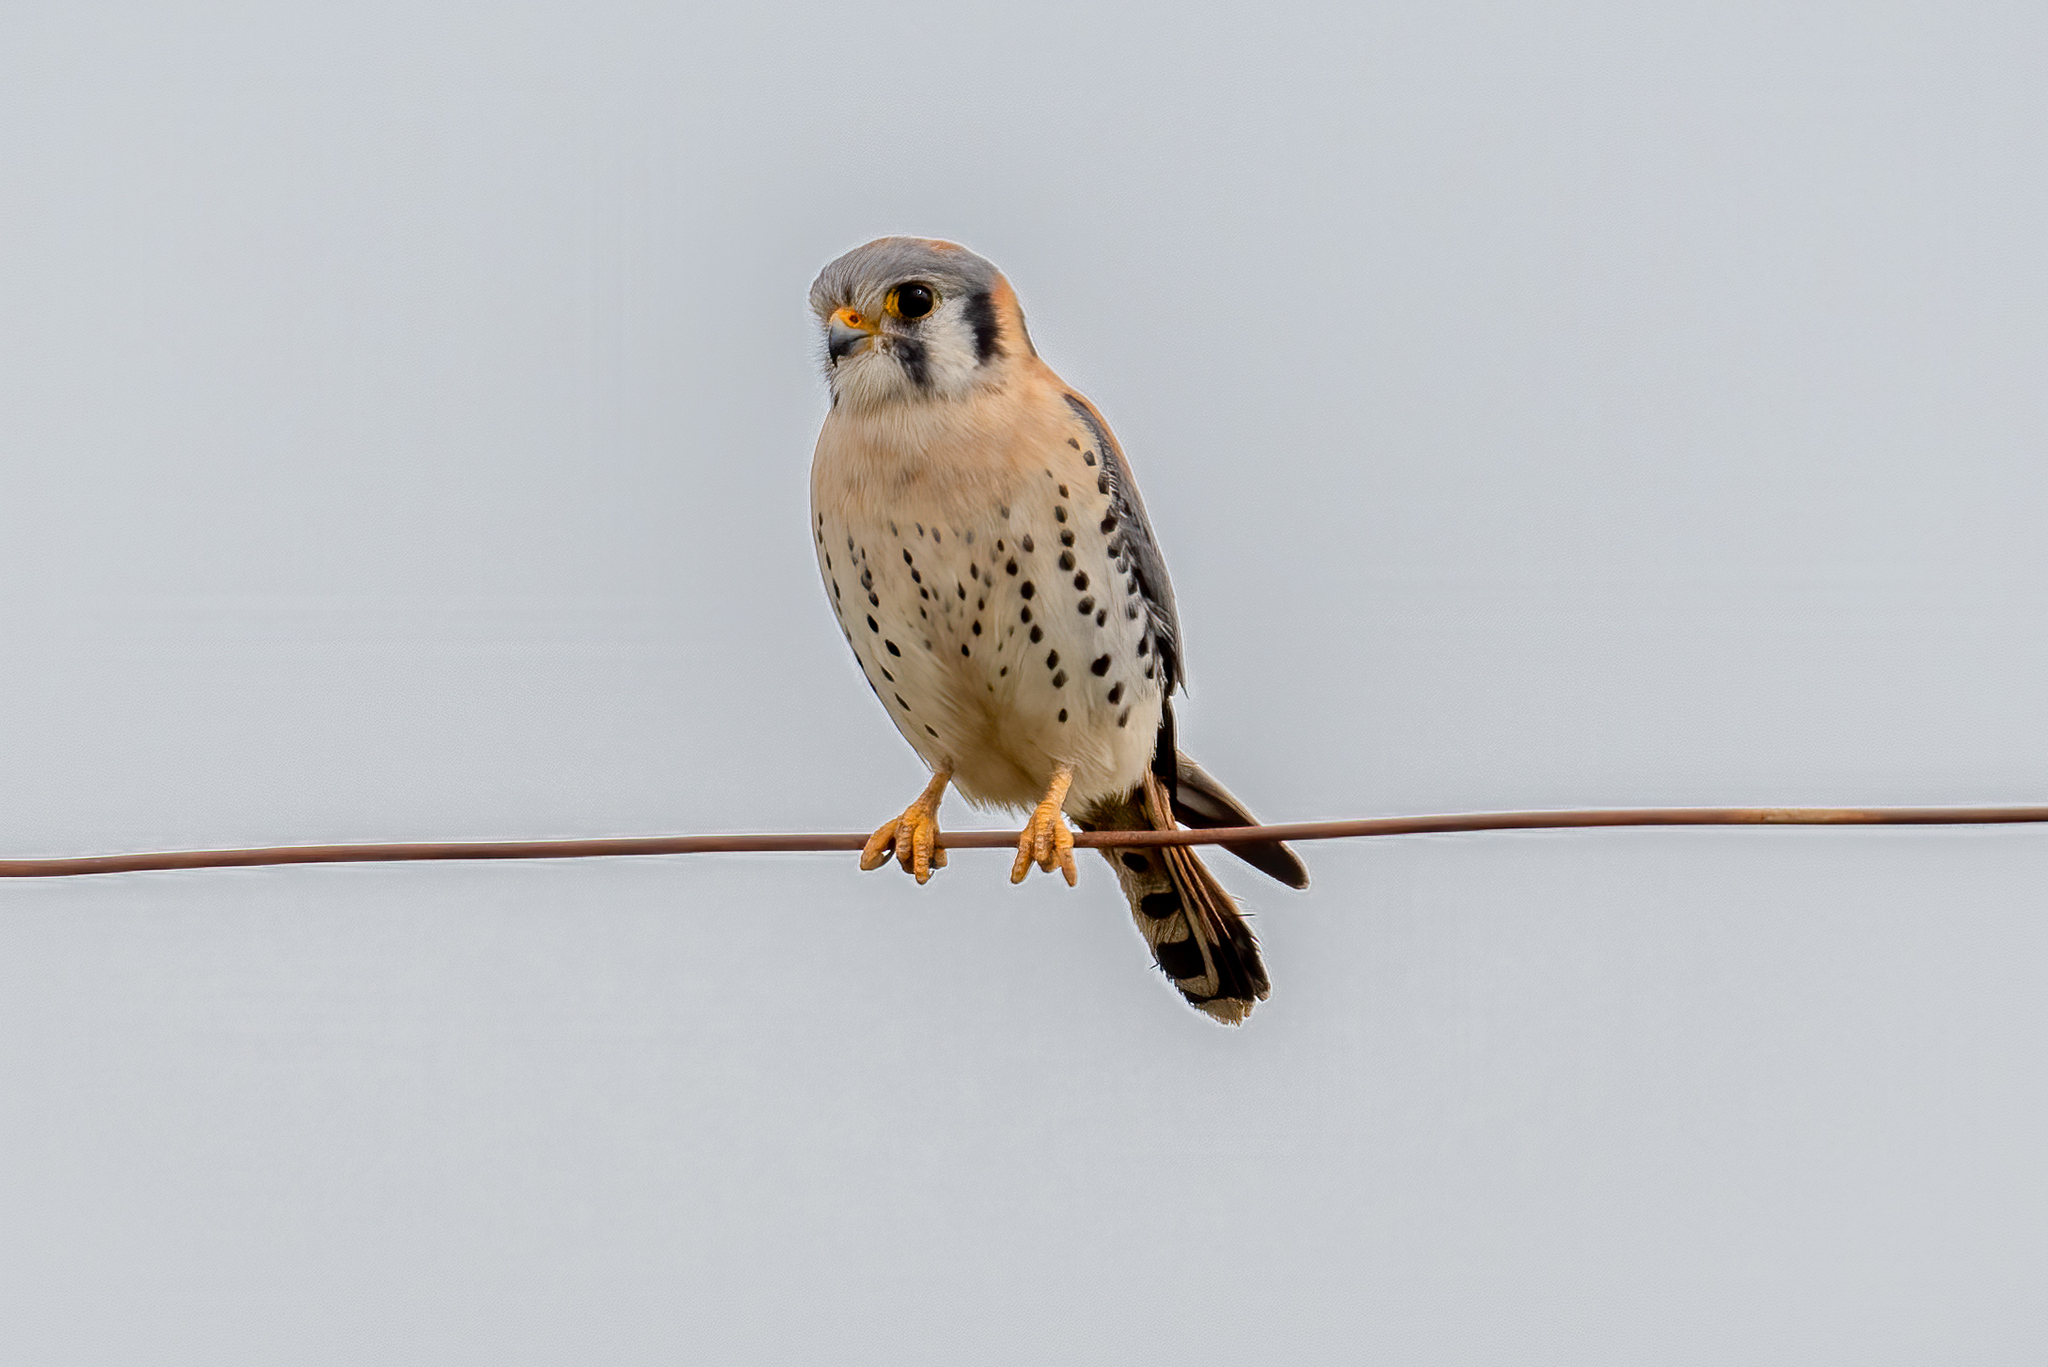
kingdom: Animalia
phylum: Chordata
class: Aves
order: Falconiformes
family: Falconidae
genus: Falco
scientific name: Falco sparverius
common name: American kestrel
